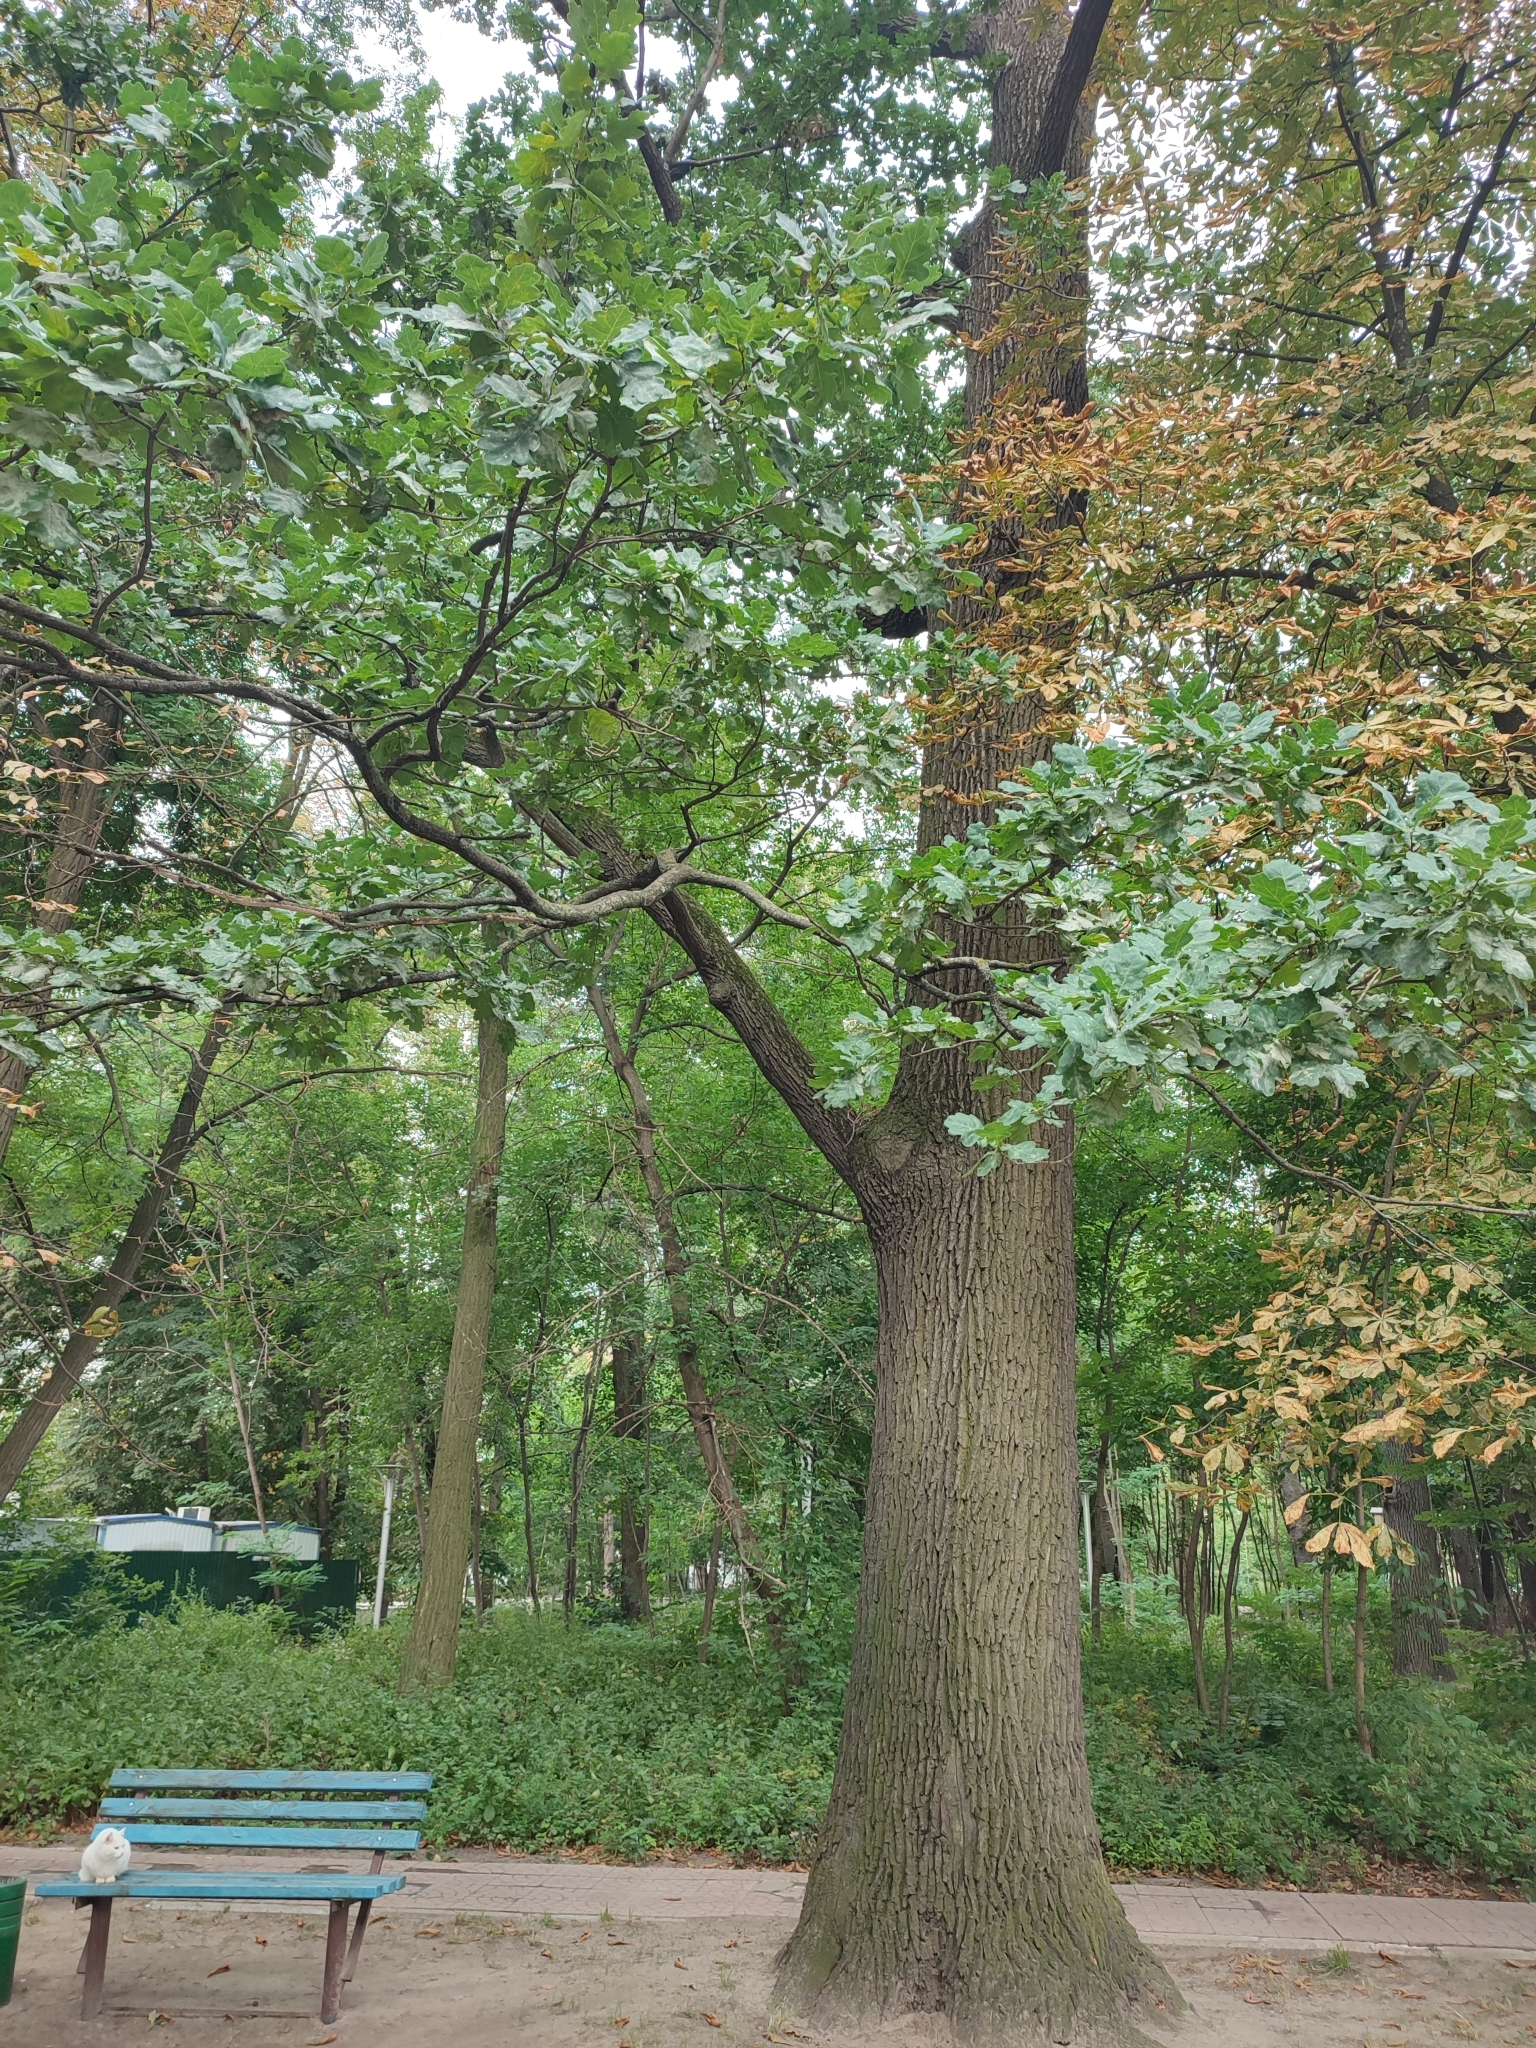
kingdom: Plantae
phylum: Tracheophyta
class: Magnoliopsida
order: Fagales
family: Fagaceae
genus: Quercus
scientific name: Quercus robur
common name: Pedunculate oak
